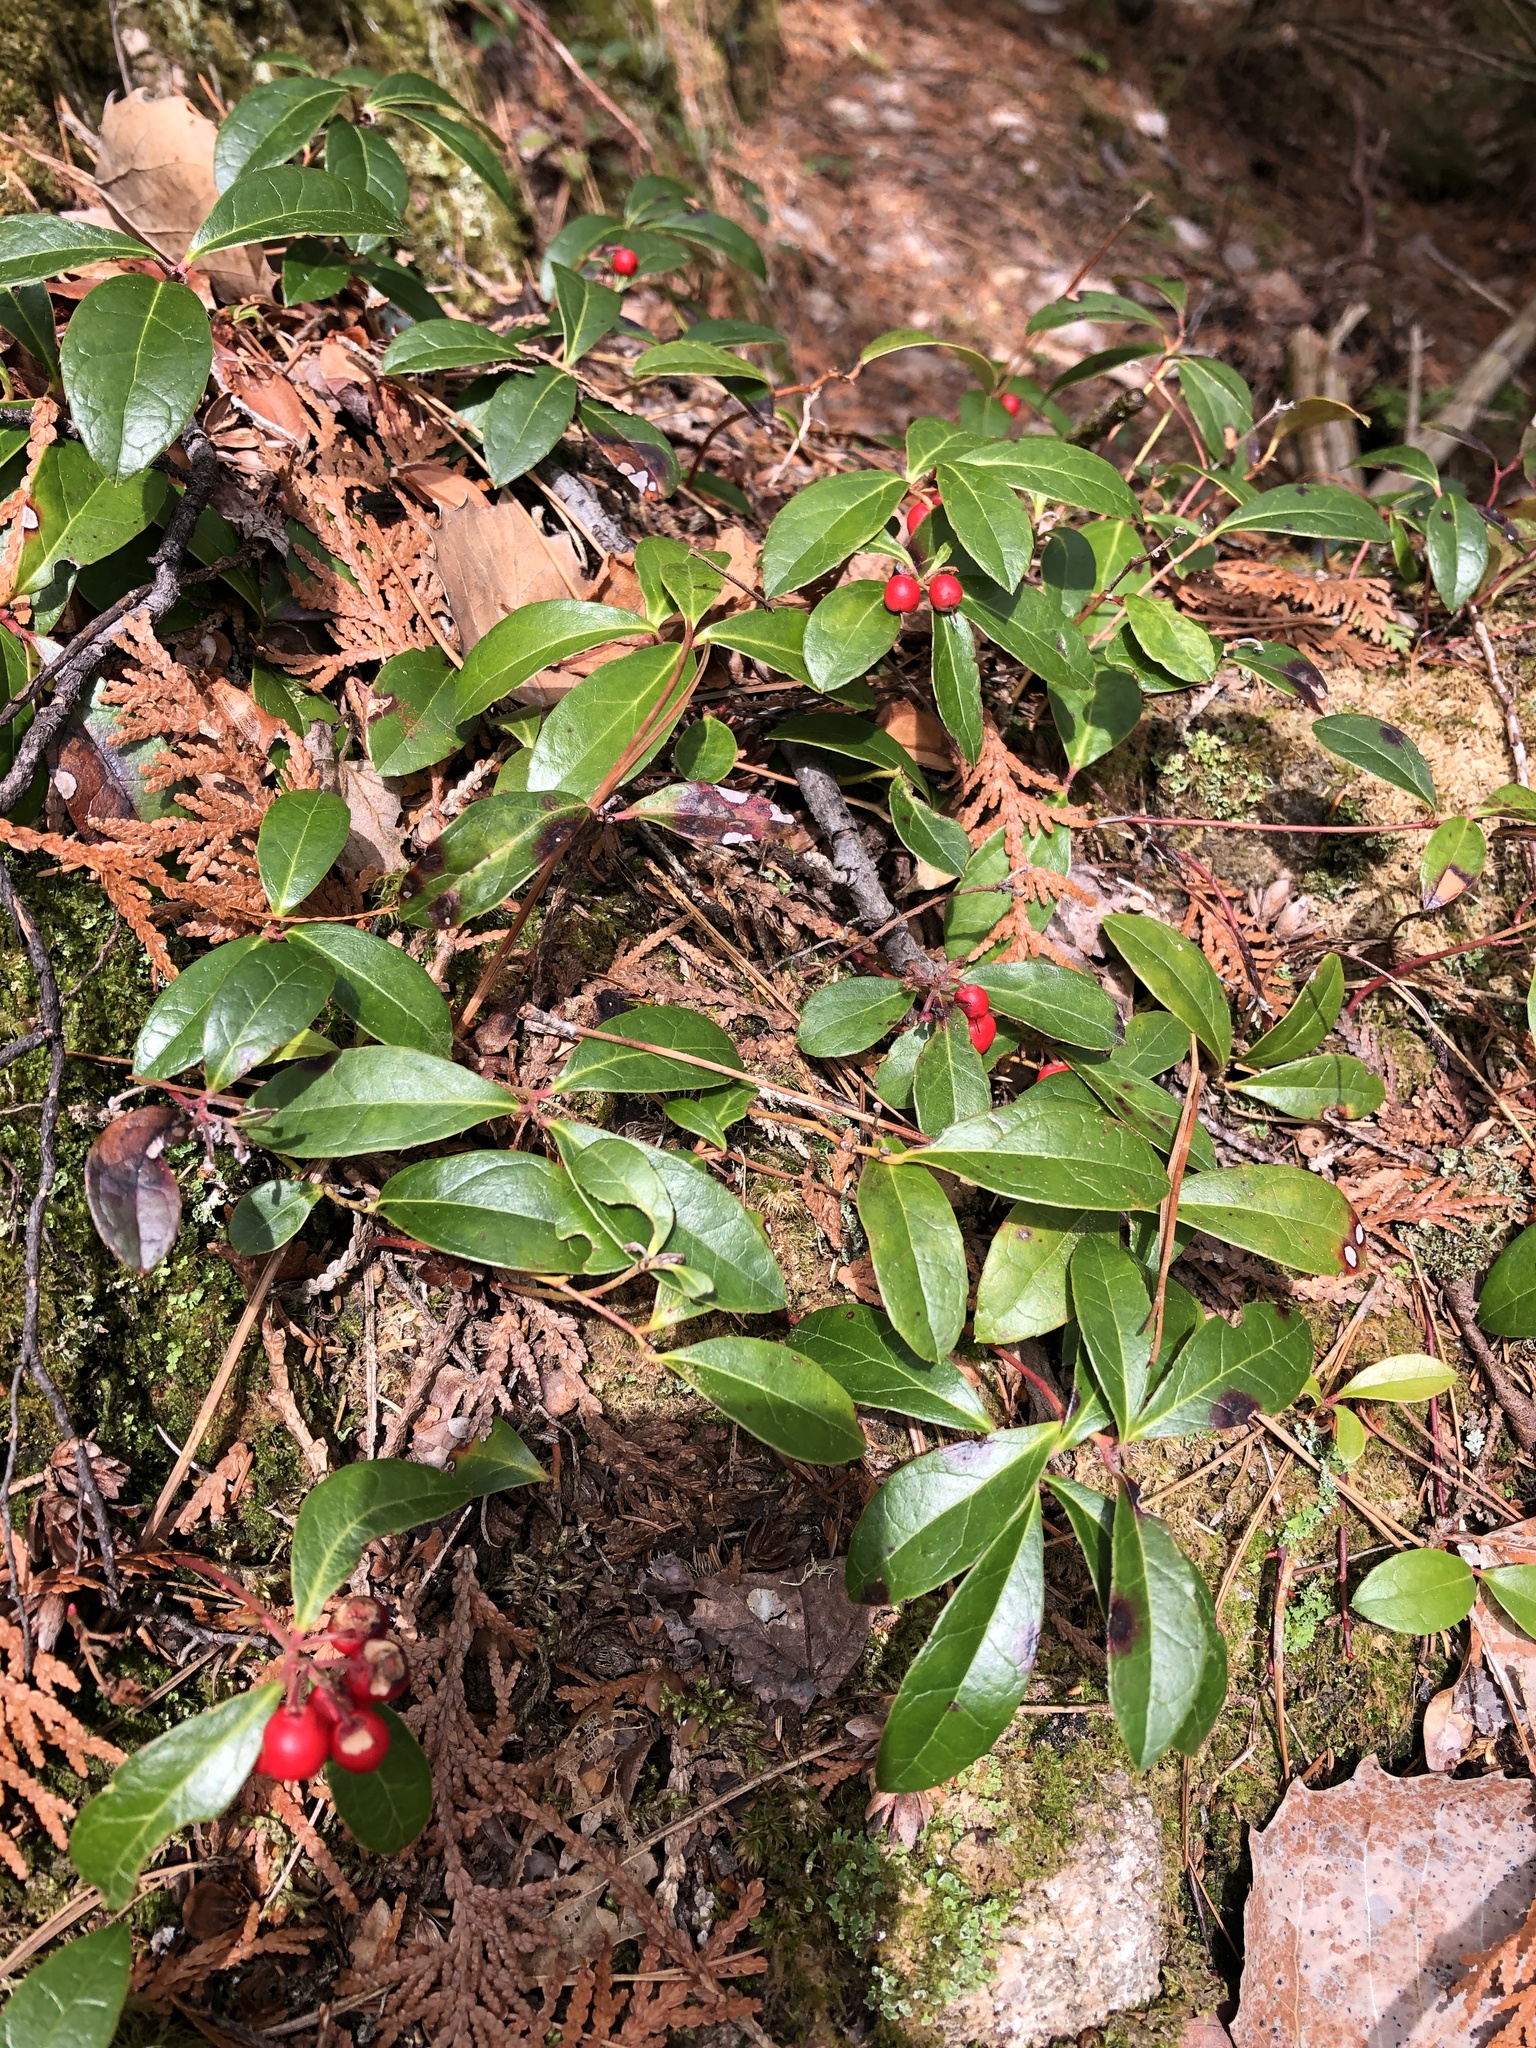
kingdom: Plantae
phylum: Tracheophyta
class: Magnoliopsida
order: Ericales
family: Ericaceae
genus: Gaultheria
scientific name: Gaultheria procumbens
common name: Checkerberry
